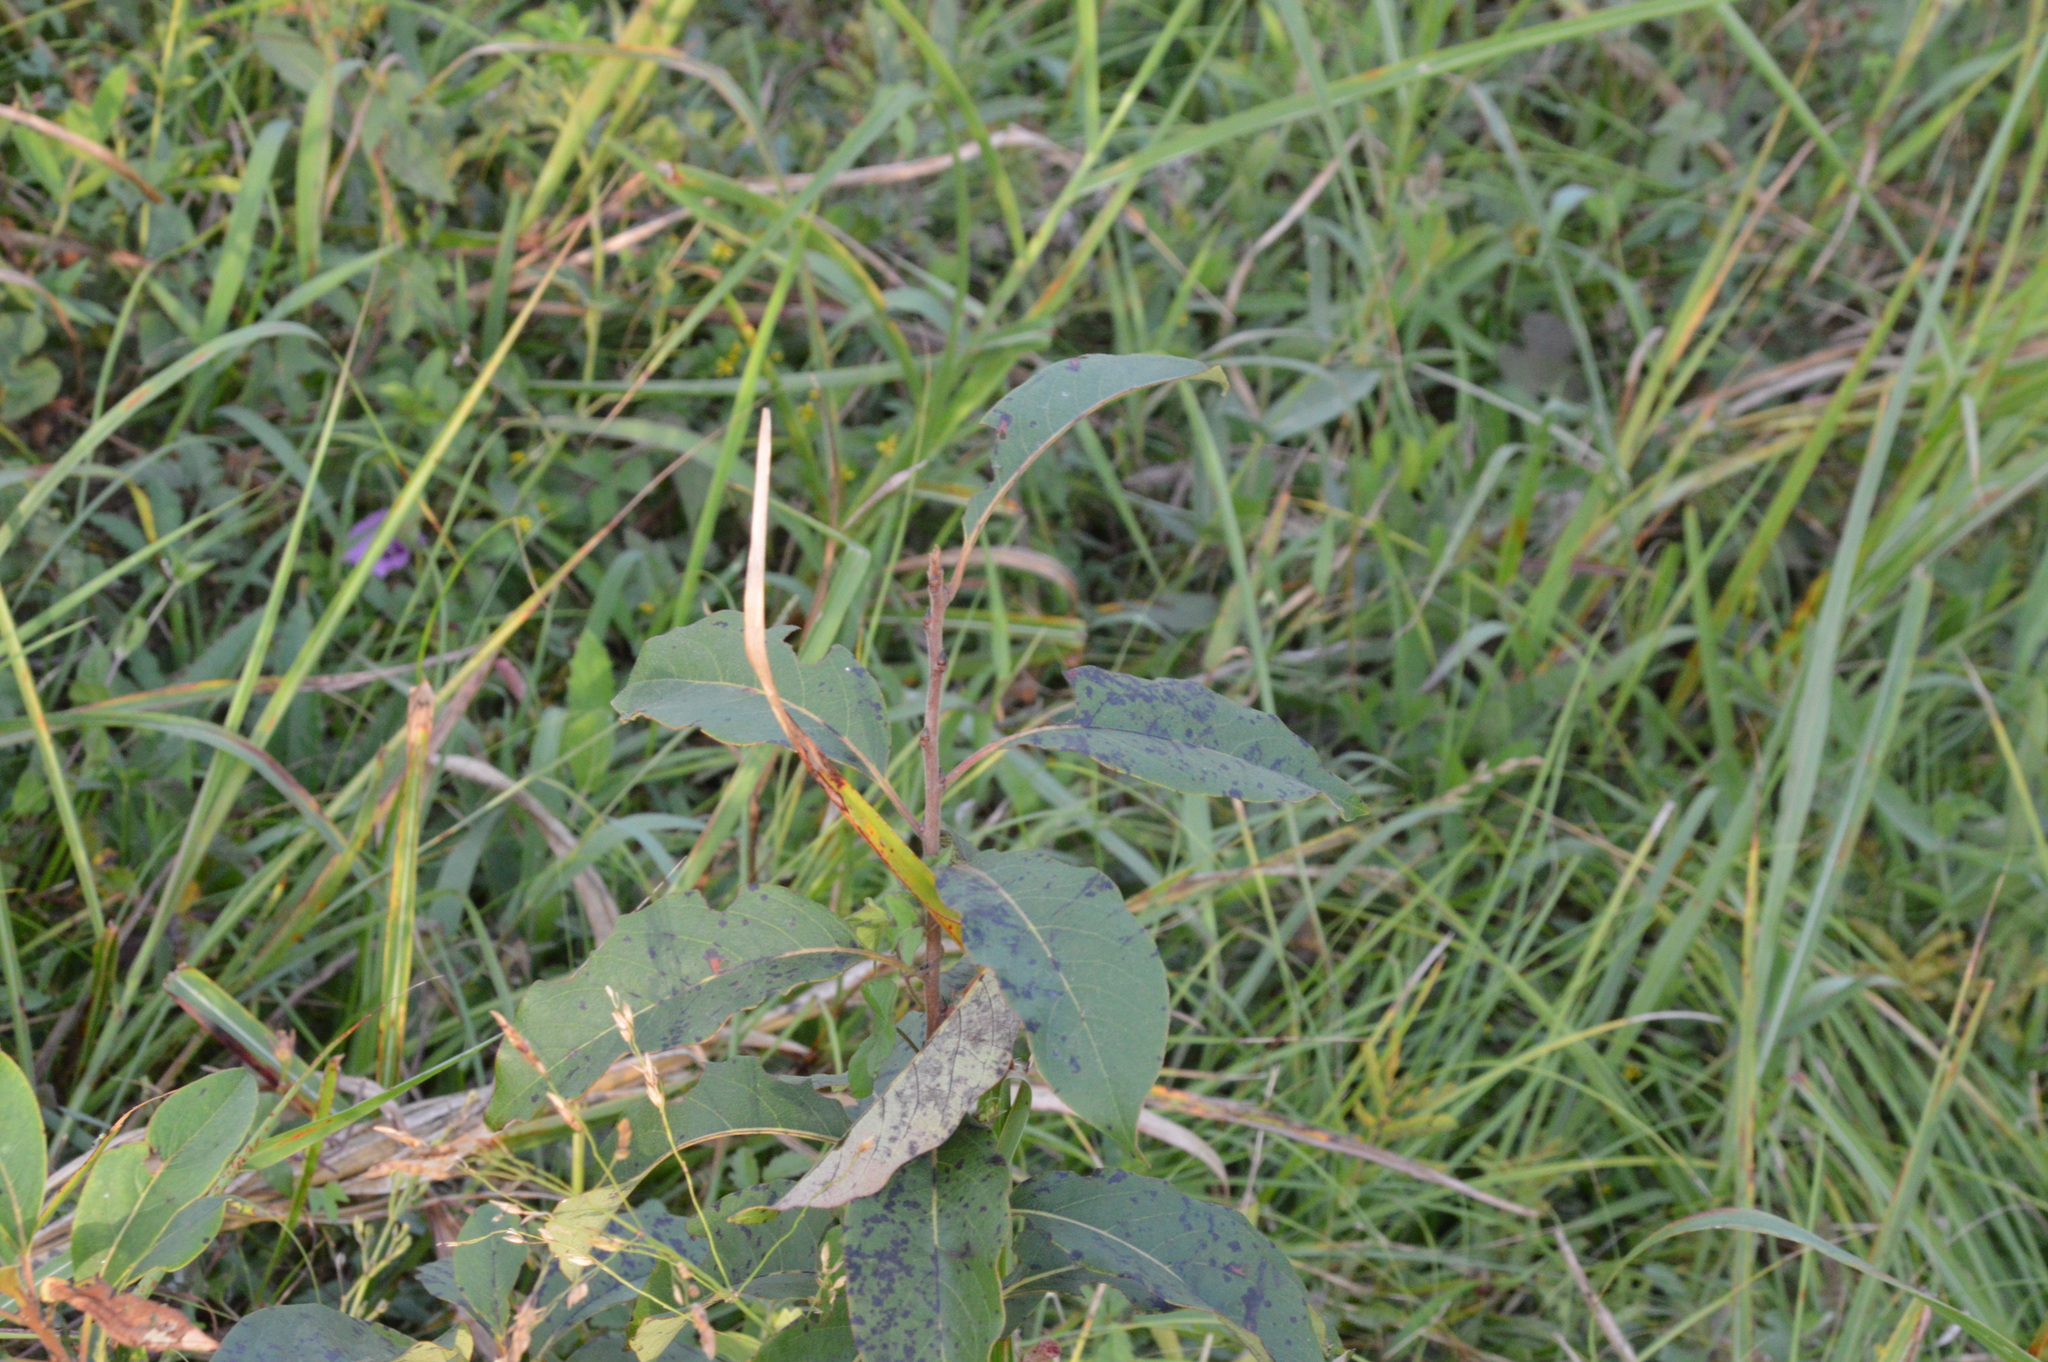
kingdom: Plantae
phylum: Tracheophyta
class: Magnoliopsida
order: Ericales
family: Ebenaceae
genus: Diospyros
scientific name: Diospyros virginiana
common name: Persimmon
